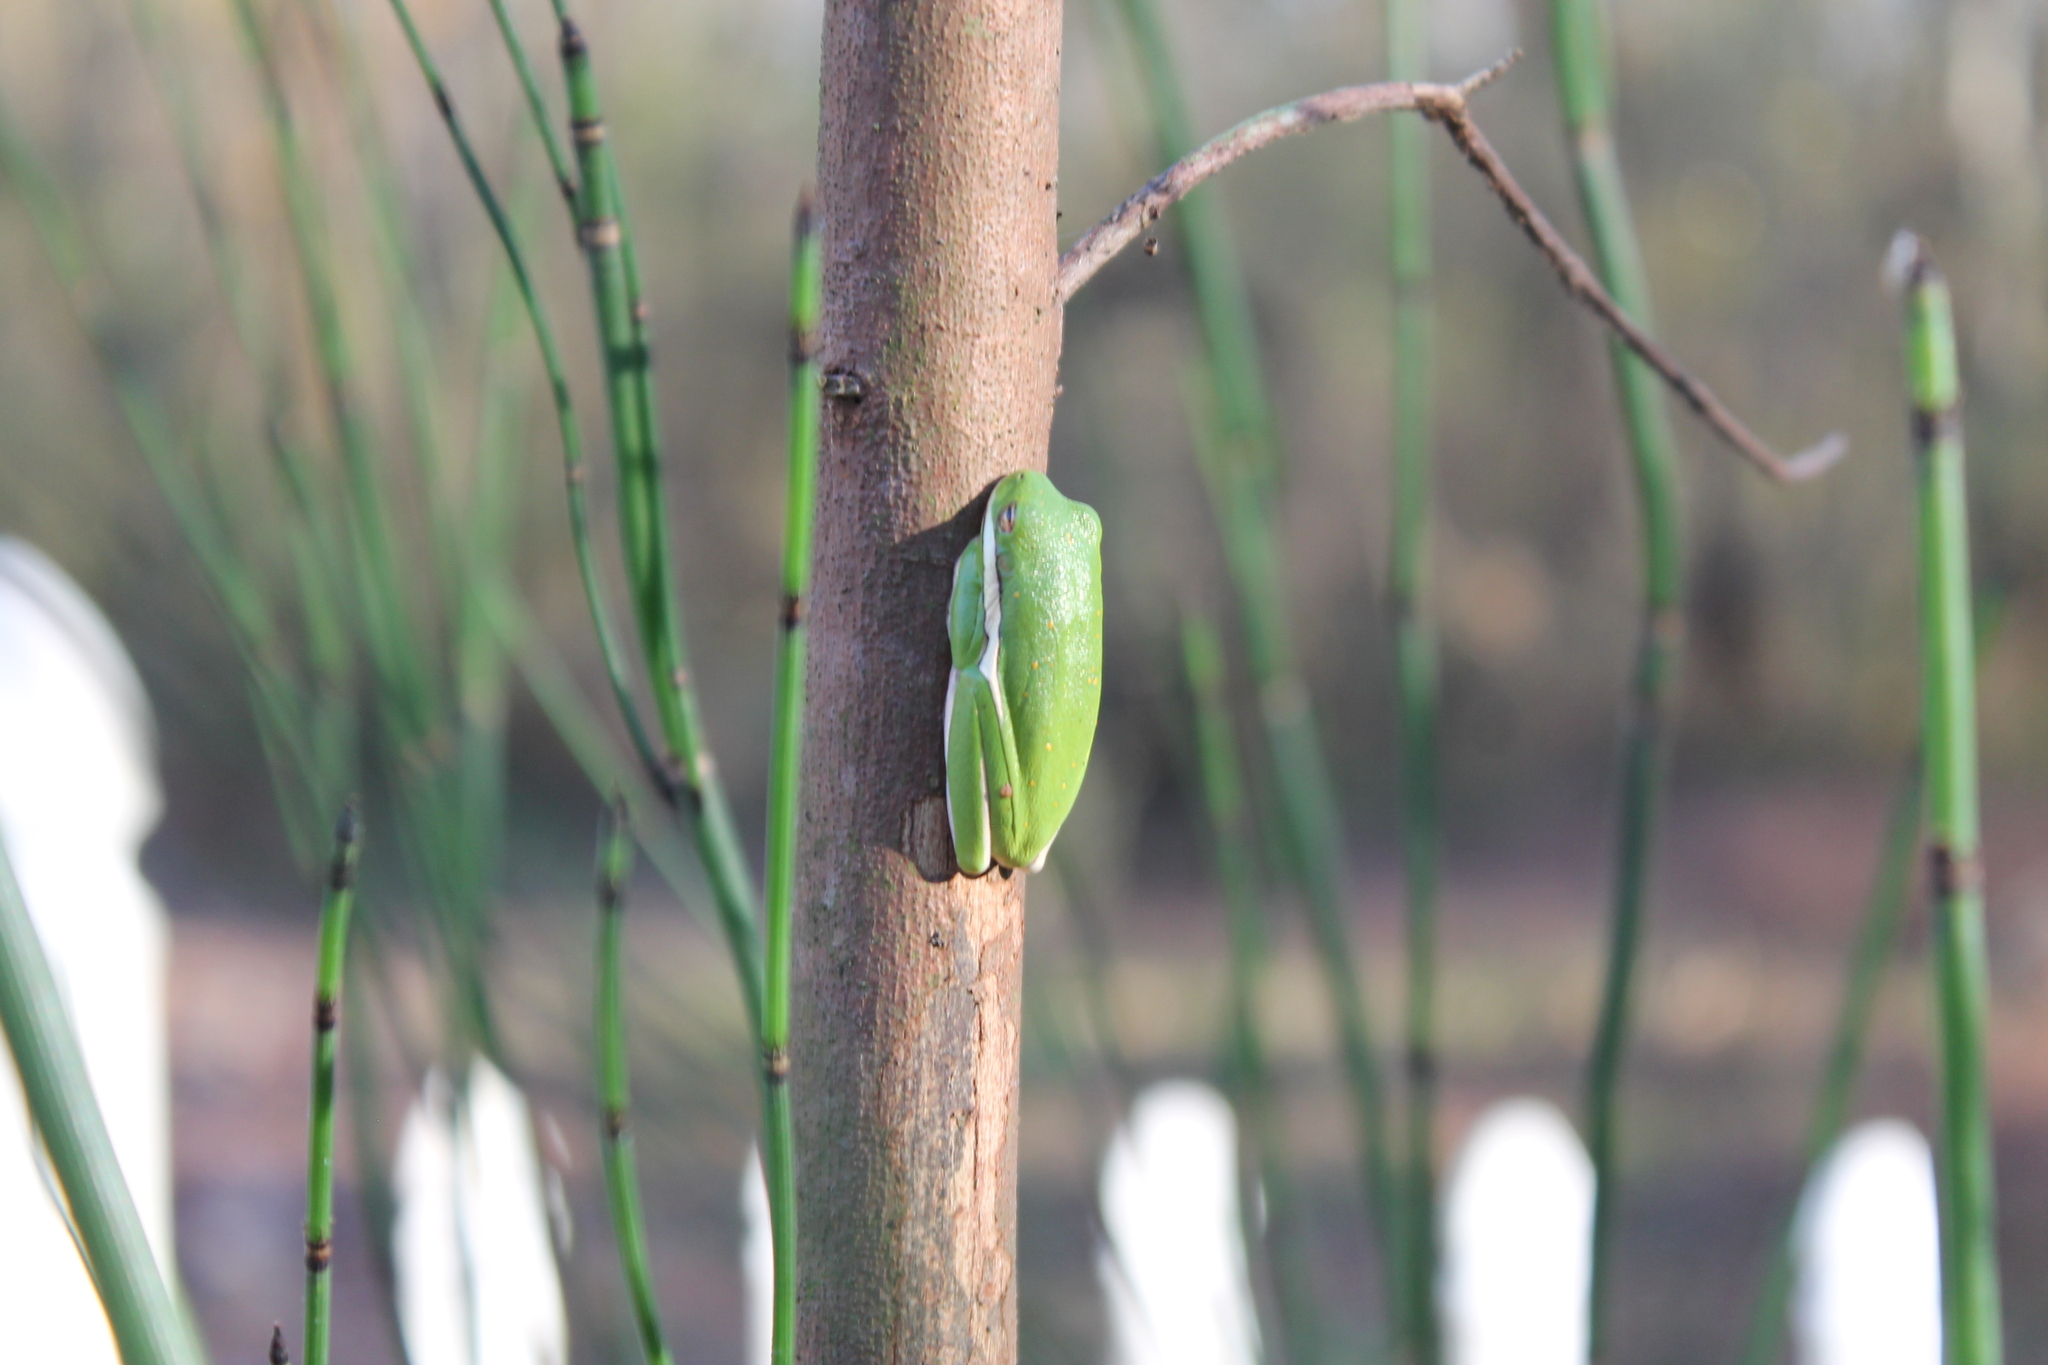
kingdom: Animalia
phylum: Chordata
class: Amphibia
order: Anura
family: Hylidae
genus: Dryophytes
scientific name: Dryophytes cinereus
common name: Green treefrog
